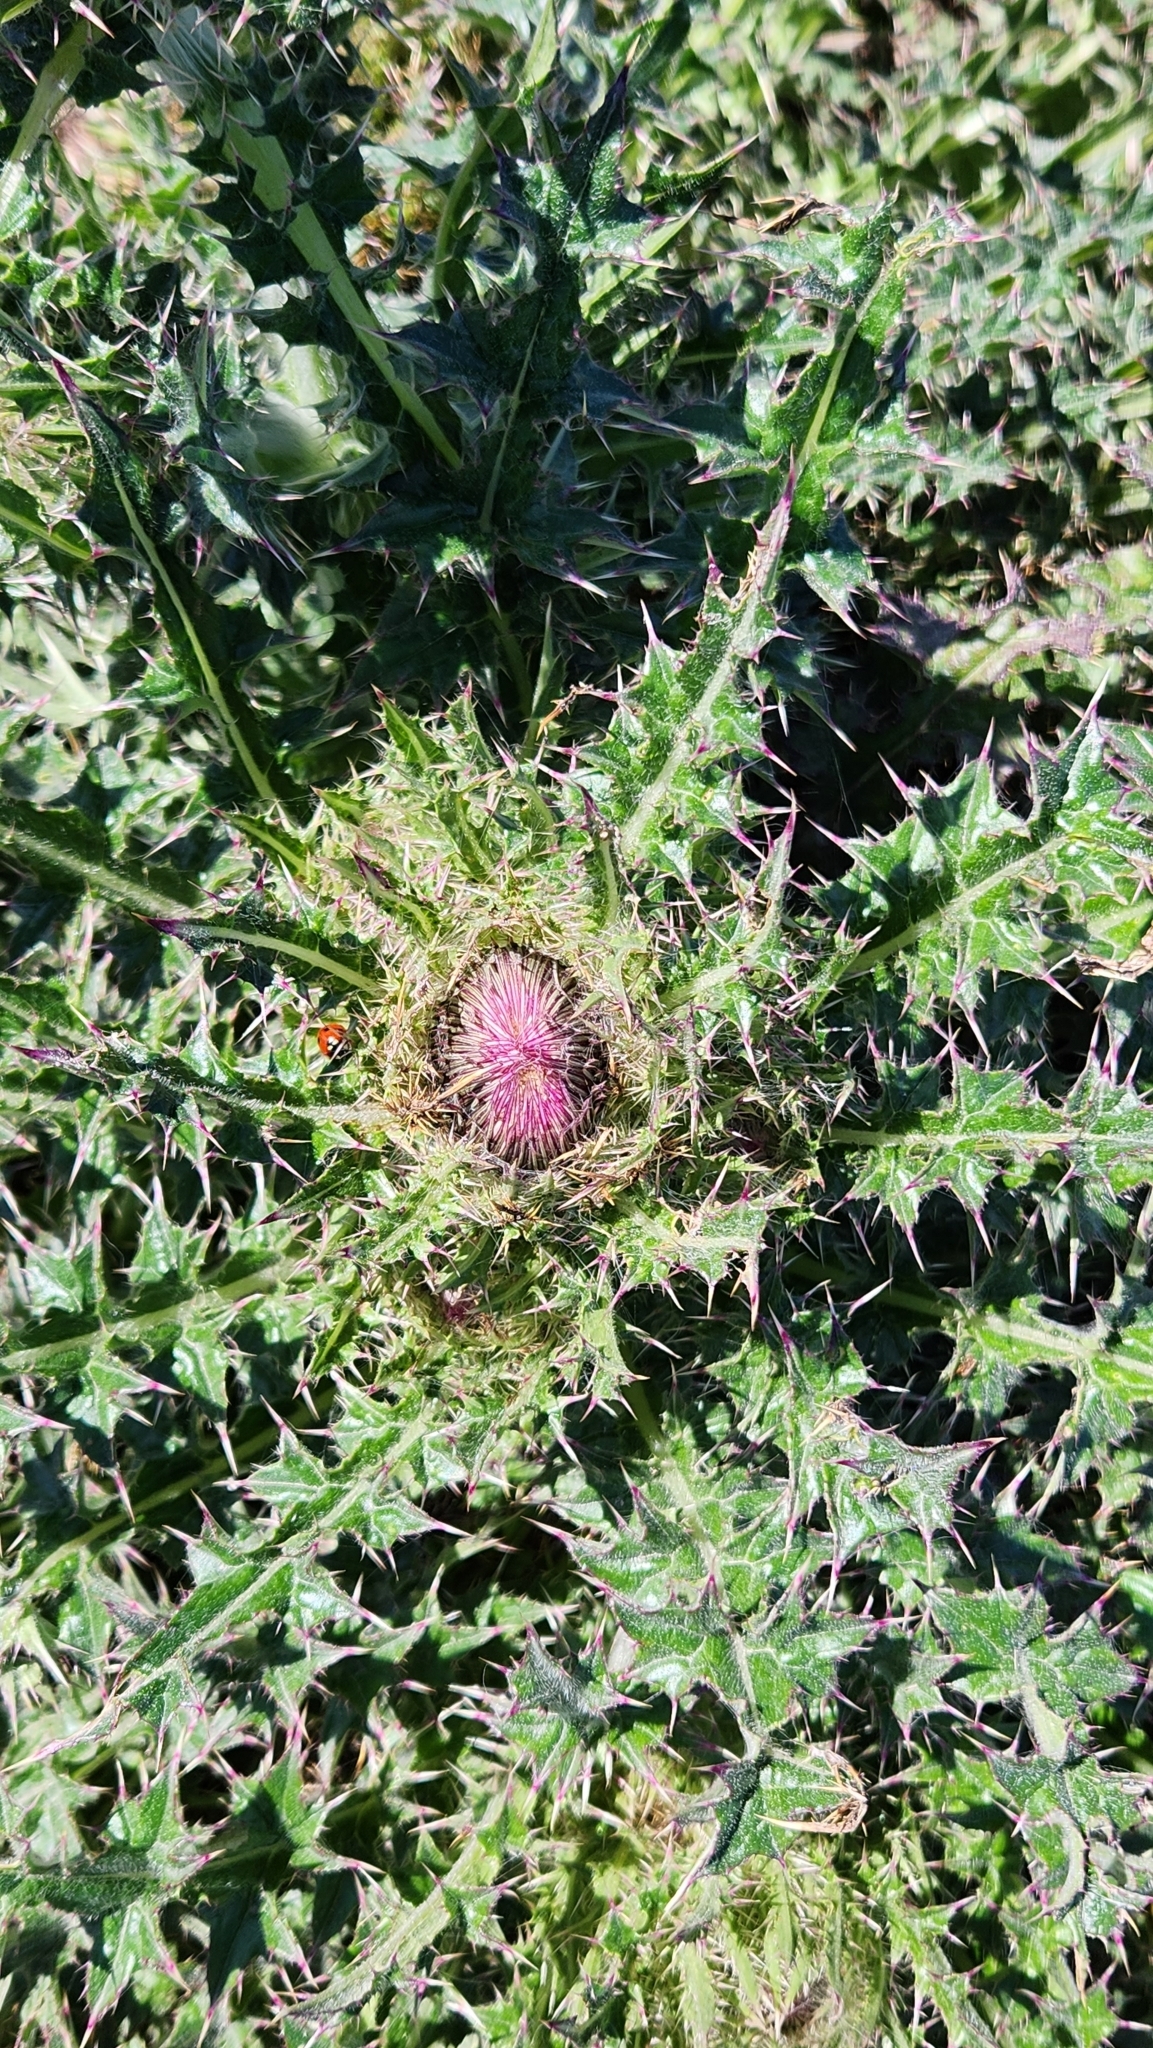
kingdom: Plantae
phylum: Tracheophyta
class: Magnoliopsida
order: Asterales
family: Asteraceae
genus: Cirsium
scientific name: Cirsium horridulum
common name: Bristly thistle
